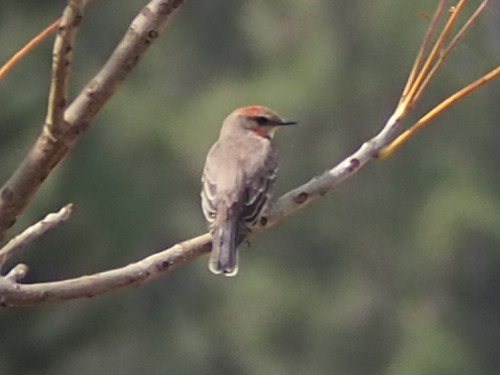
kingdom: Animalia
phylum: Chordata
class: Aves
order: Passeriformes
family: Tyrannidae
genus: Pyrocephalus
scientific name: Pyrocephalus rubinus
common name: Vermilion flycatcher
